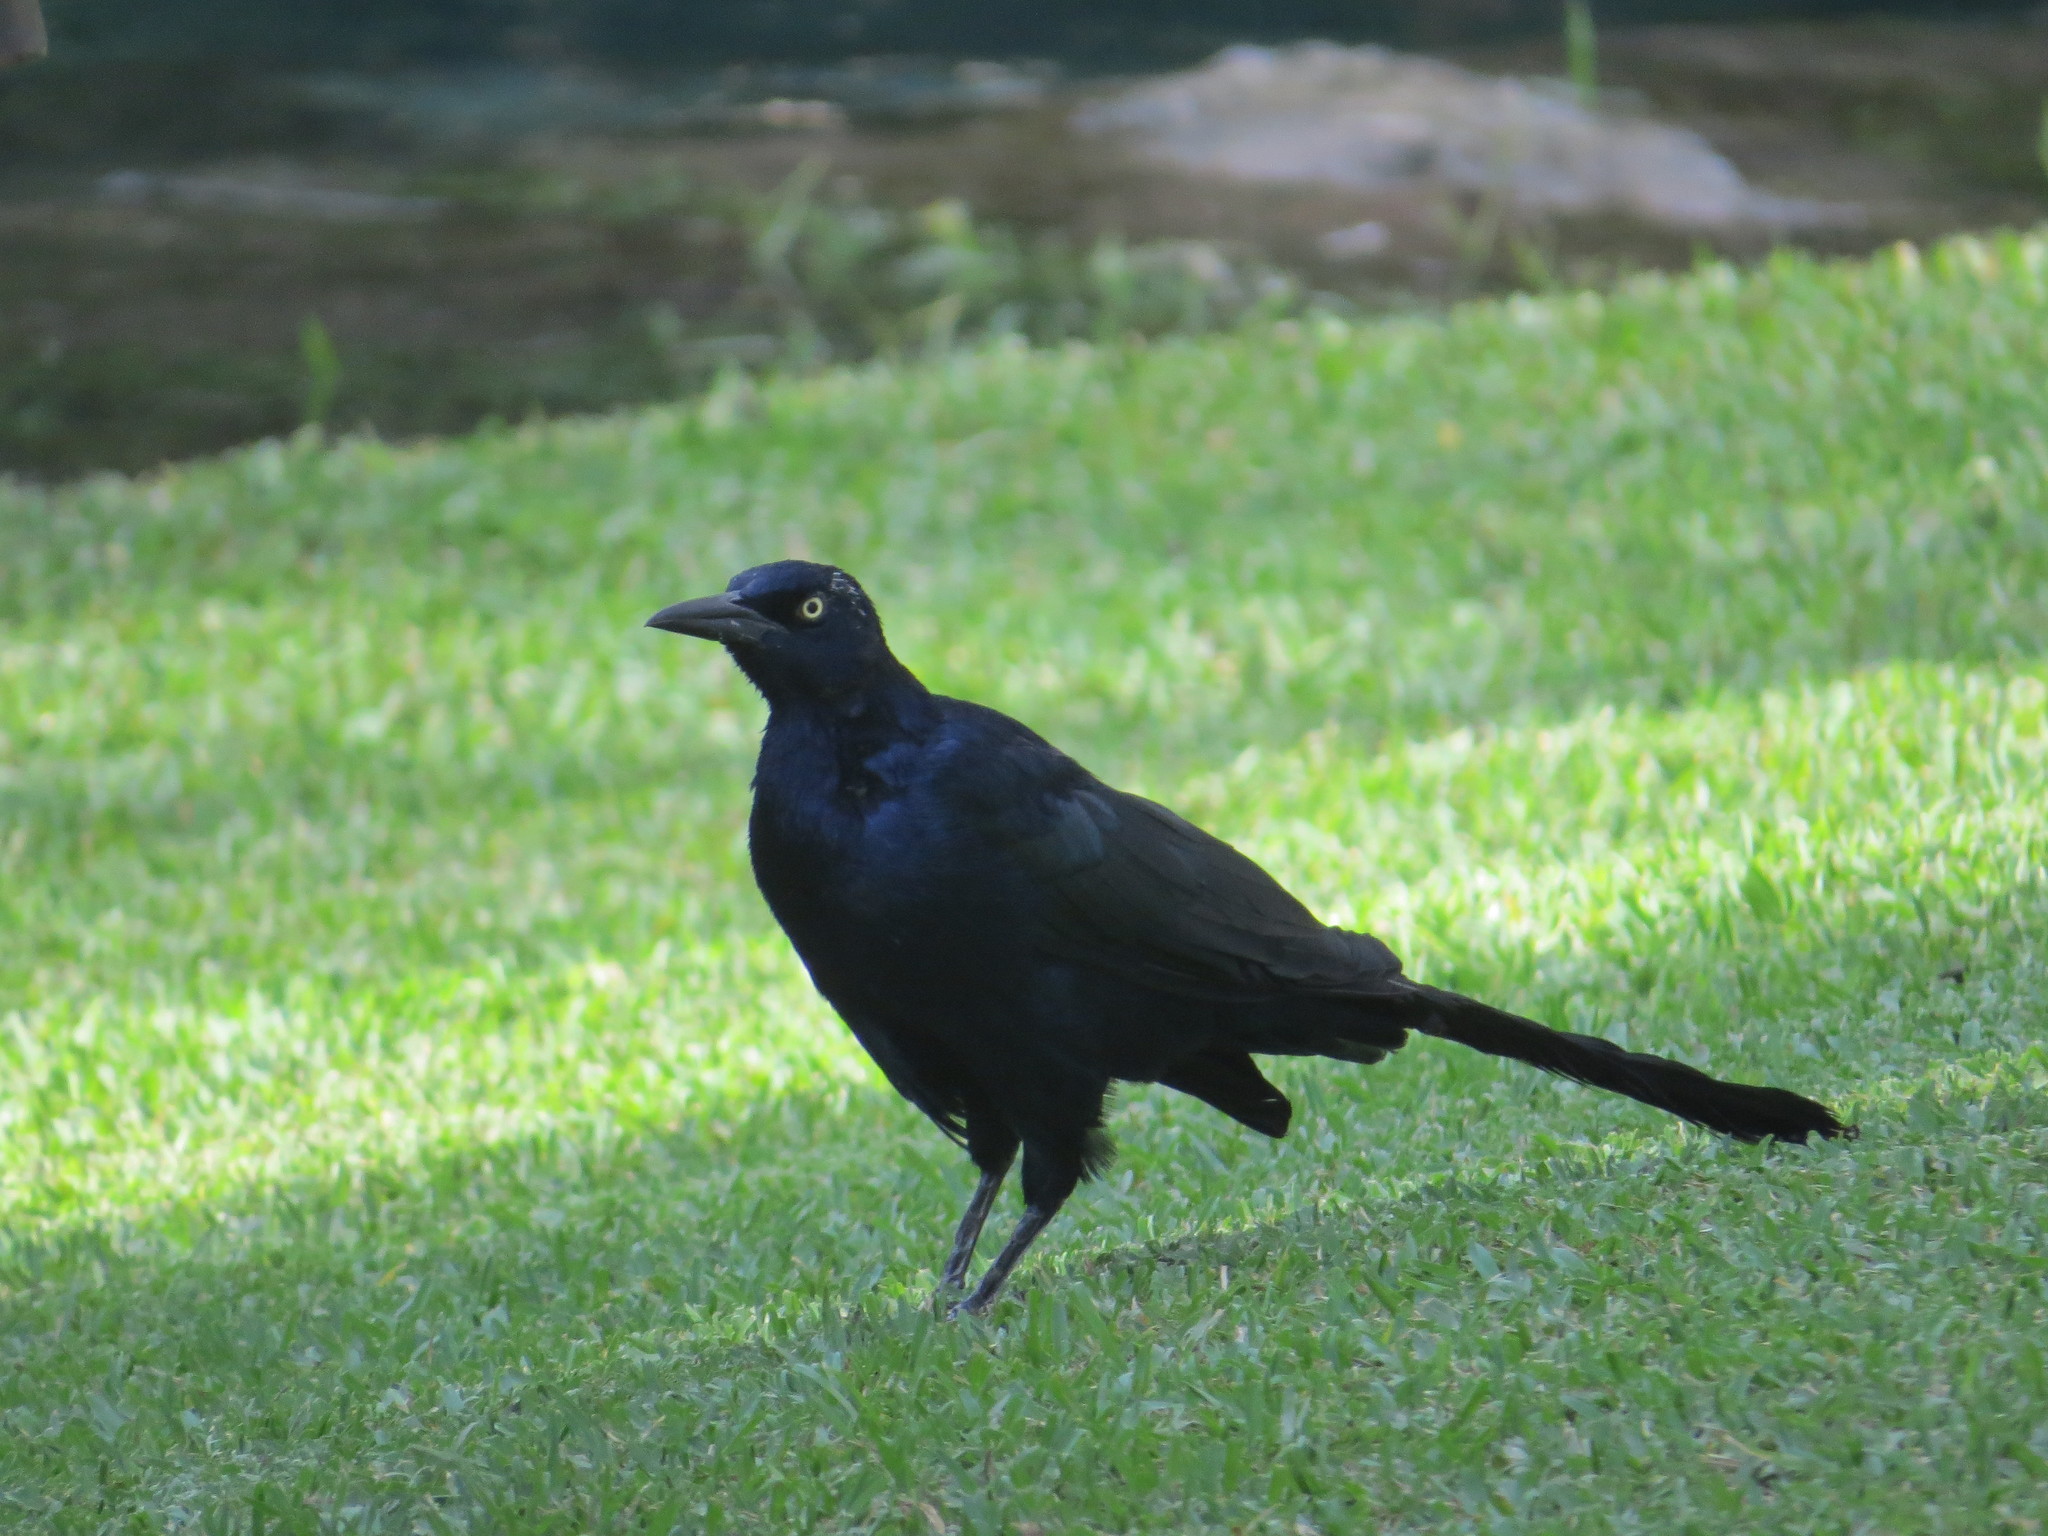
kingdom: Animalia
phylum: Chordata
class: Aves
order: Passeriformes
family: Icteridae
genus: Quiscalus
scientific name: Quiscalus mexicanus
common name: Great-tailed grackle
